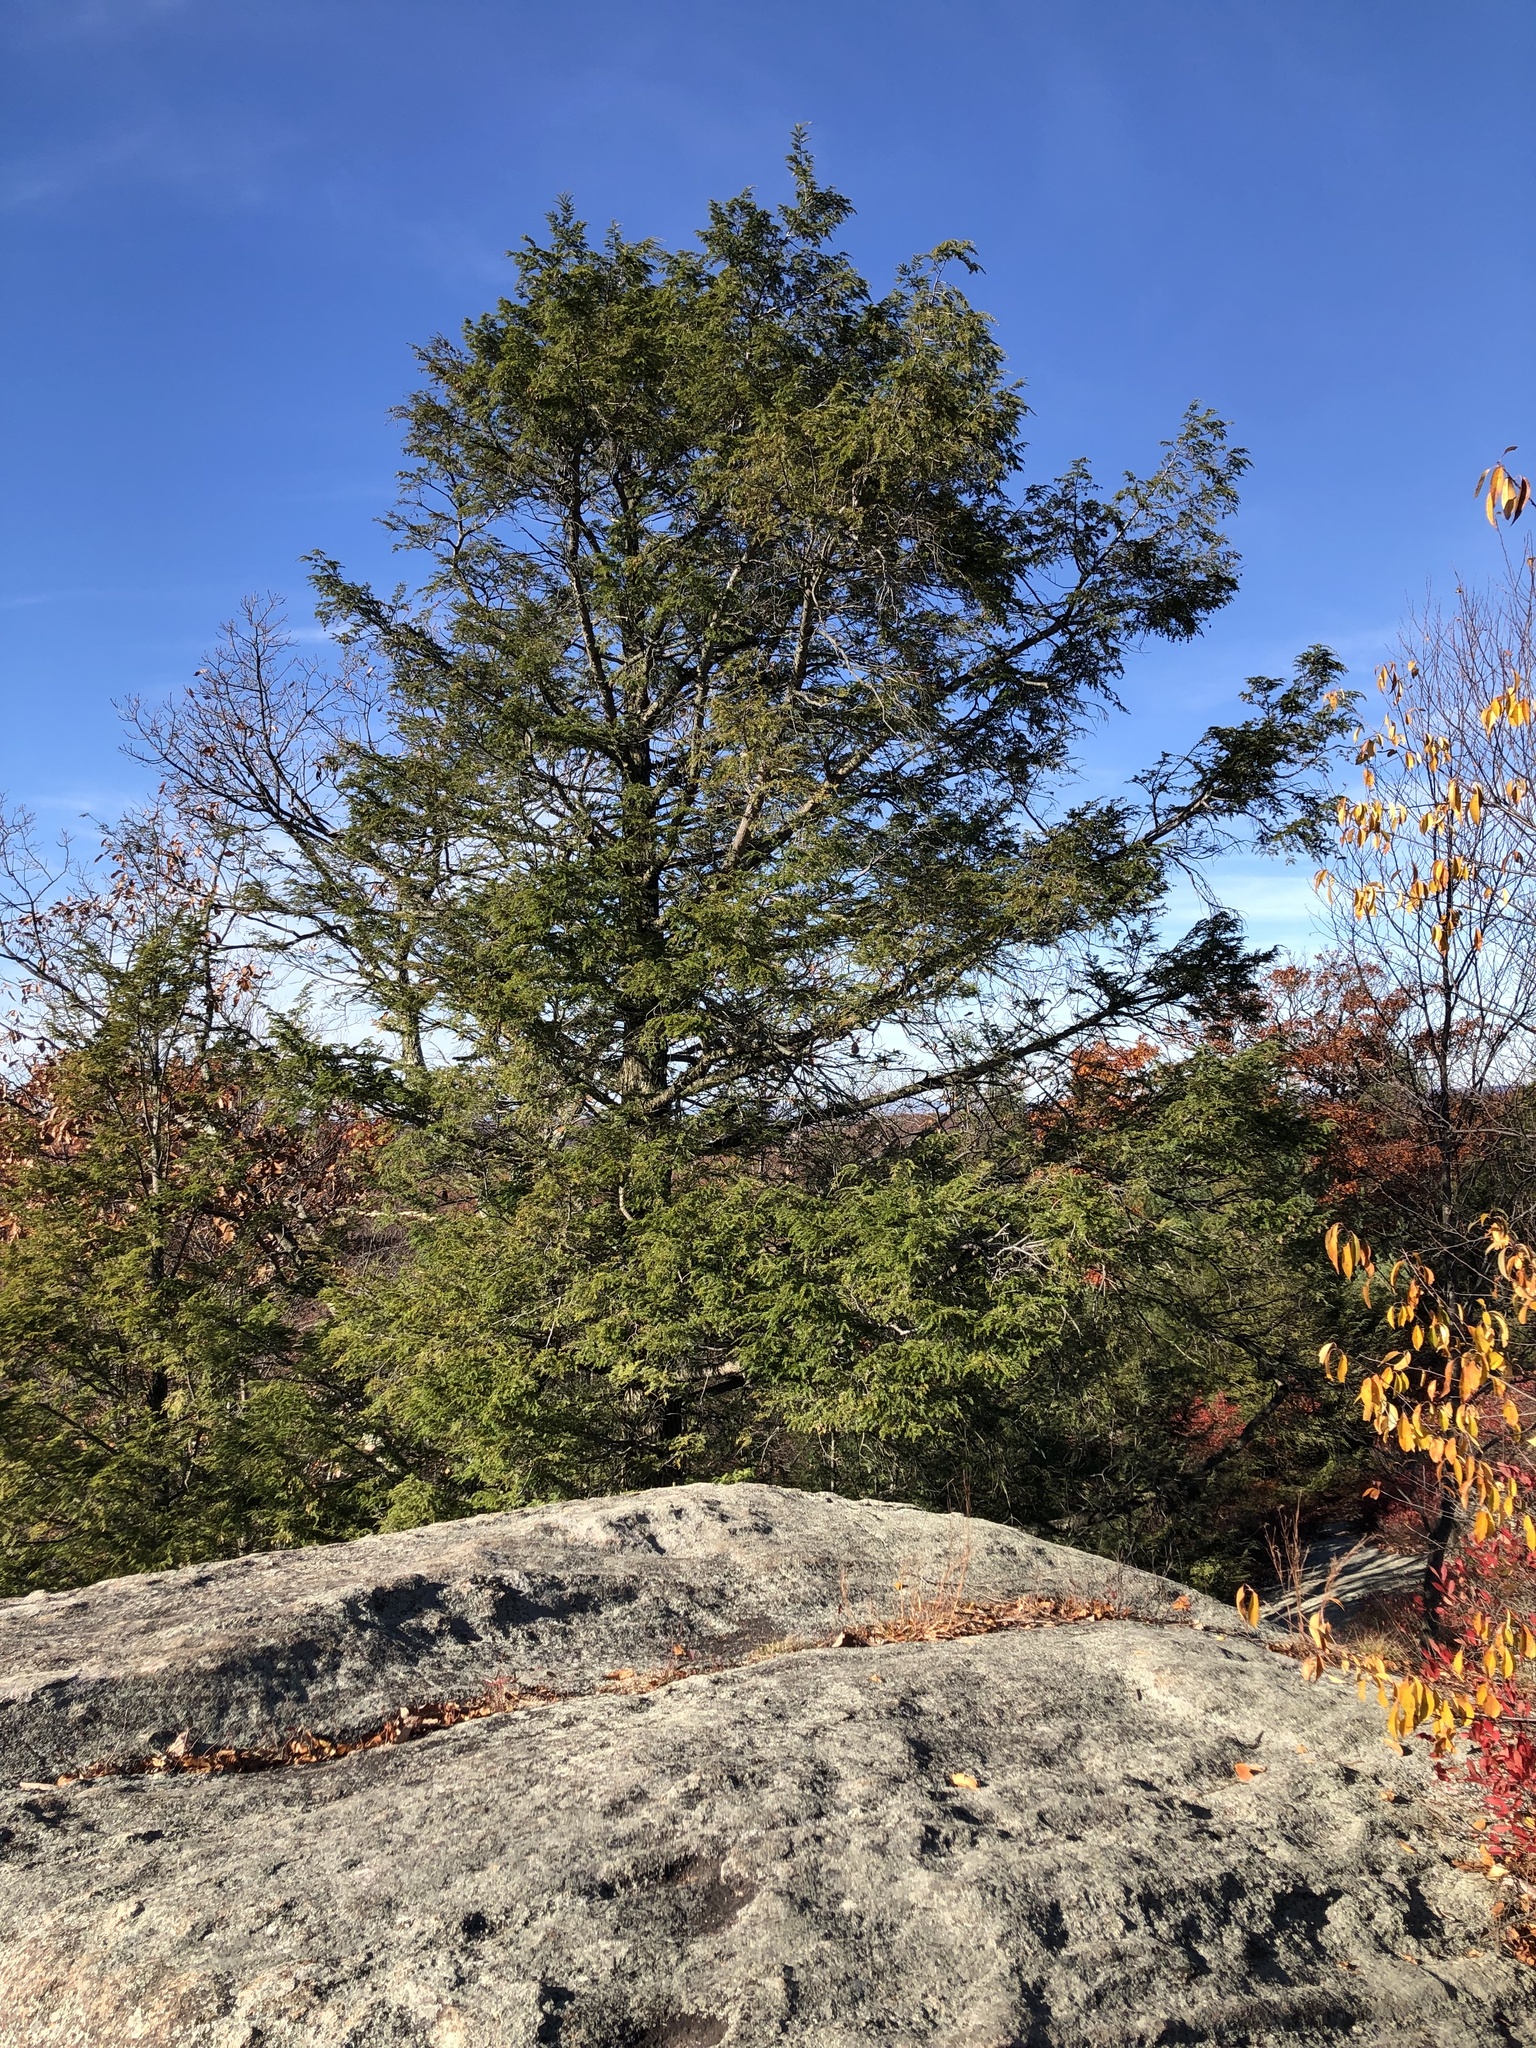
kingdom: Plantae
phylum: Tracheophyta
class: Pinopsida
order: Pinales
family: Pinaceae
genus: Tsuga
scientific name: Tsuga canadensis
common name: Eastern hemlock
